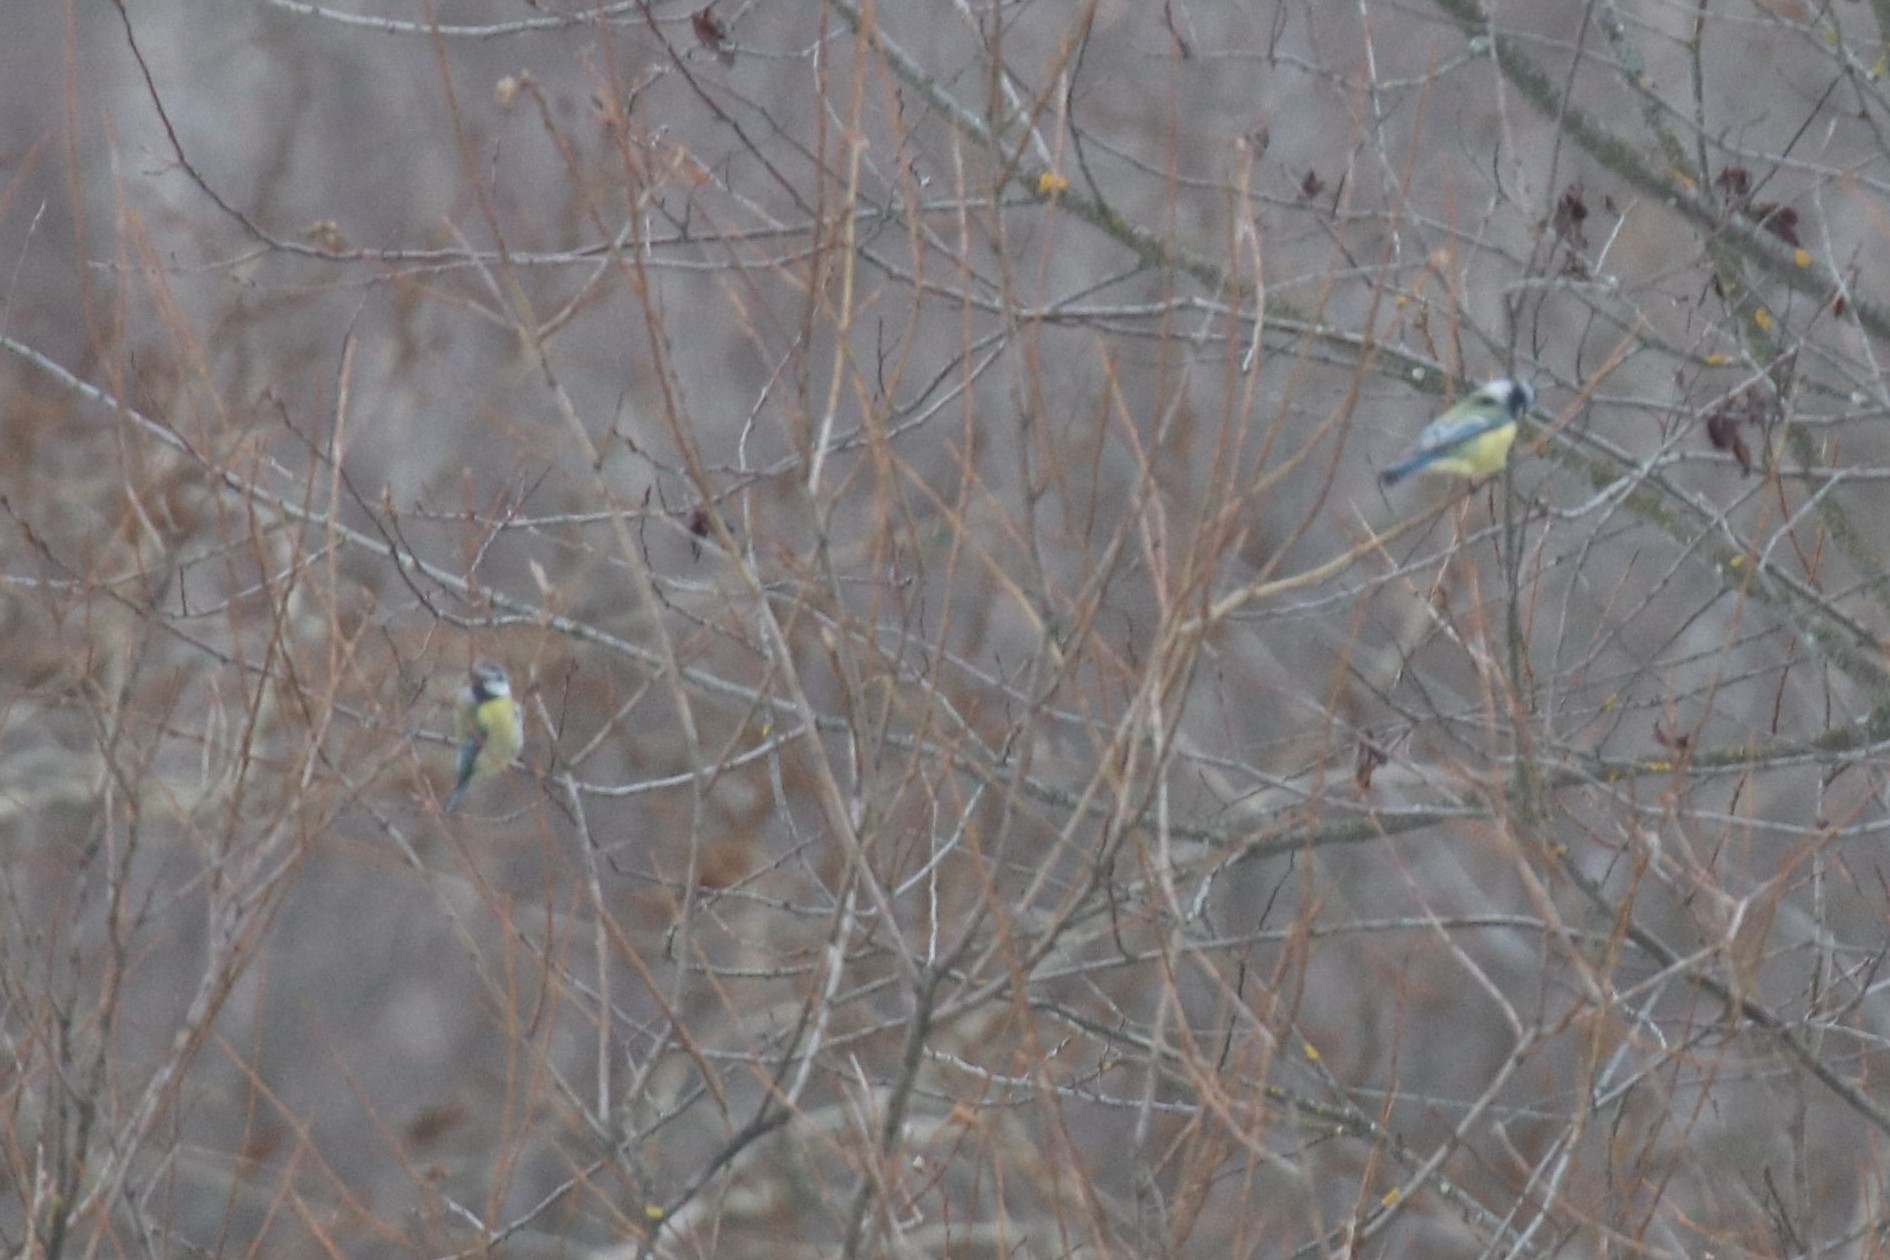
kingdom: Animalia
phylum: Chordata
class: Aves
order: Passeriformes
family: Paridae
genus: Cyanistes
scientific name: Cyanistes caeruleus
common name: Eurasian blue tit
